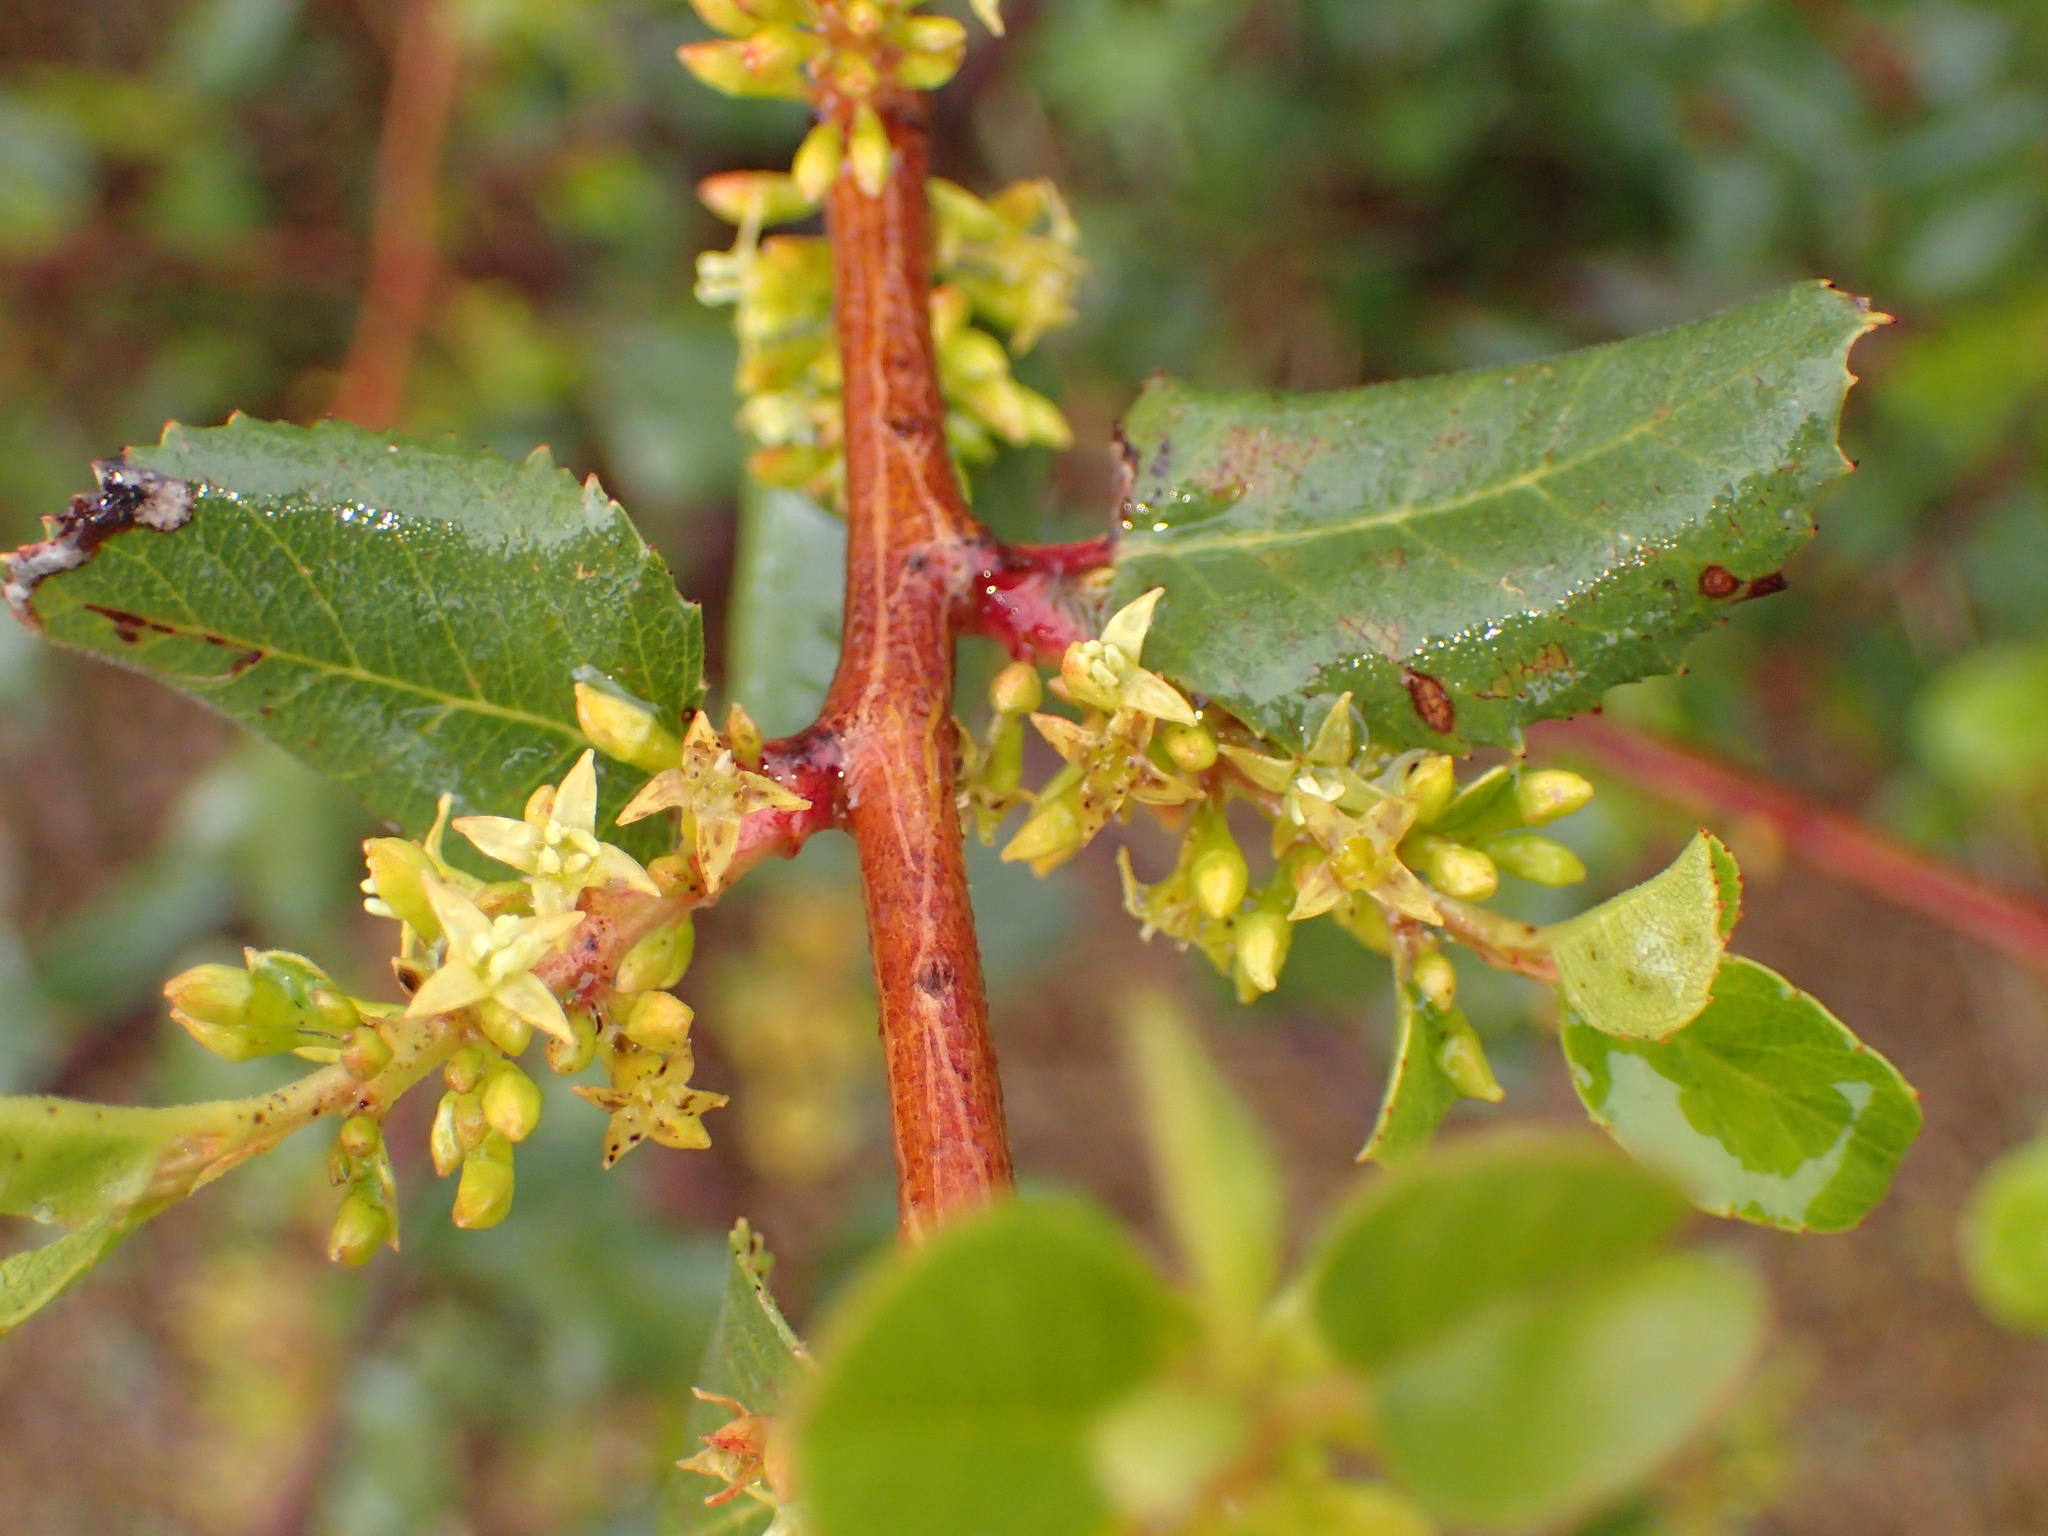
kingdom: Plantae
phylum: Tracheophyta
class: Magnoliopsida
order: Rosales
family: Rhamnaceae
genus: Endotropis
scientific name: Endotropis crocea
